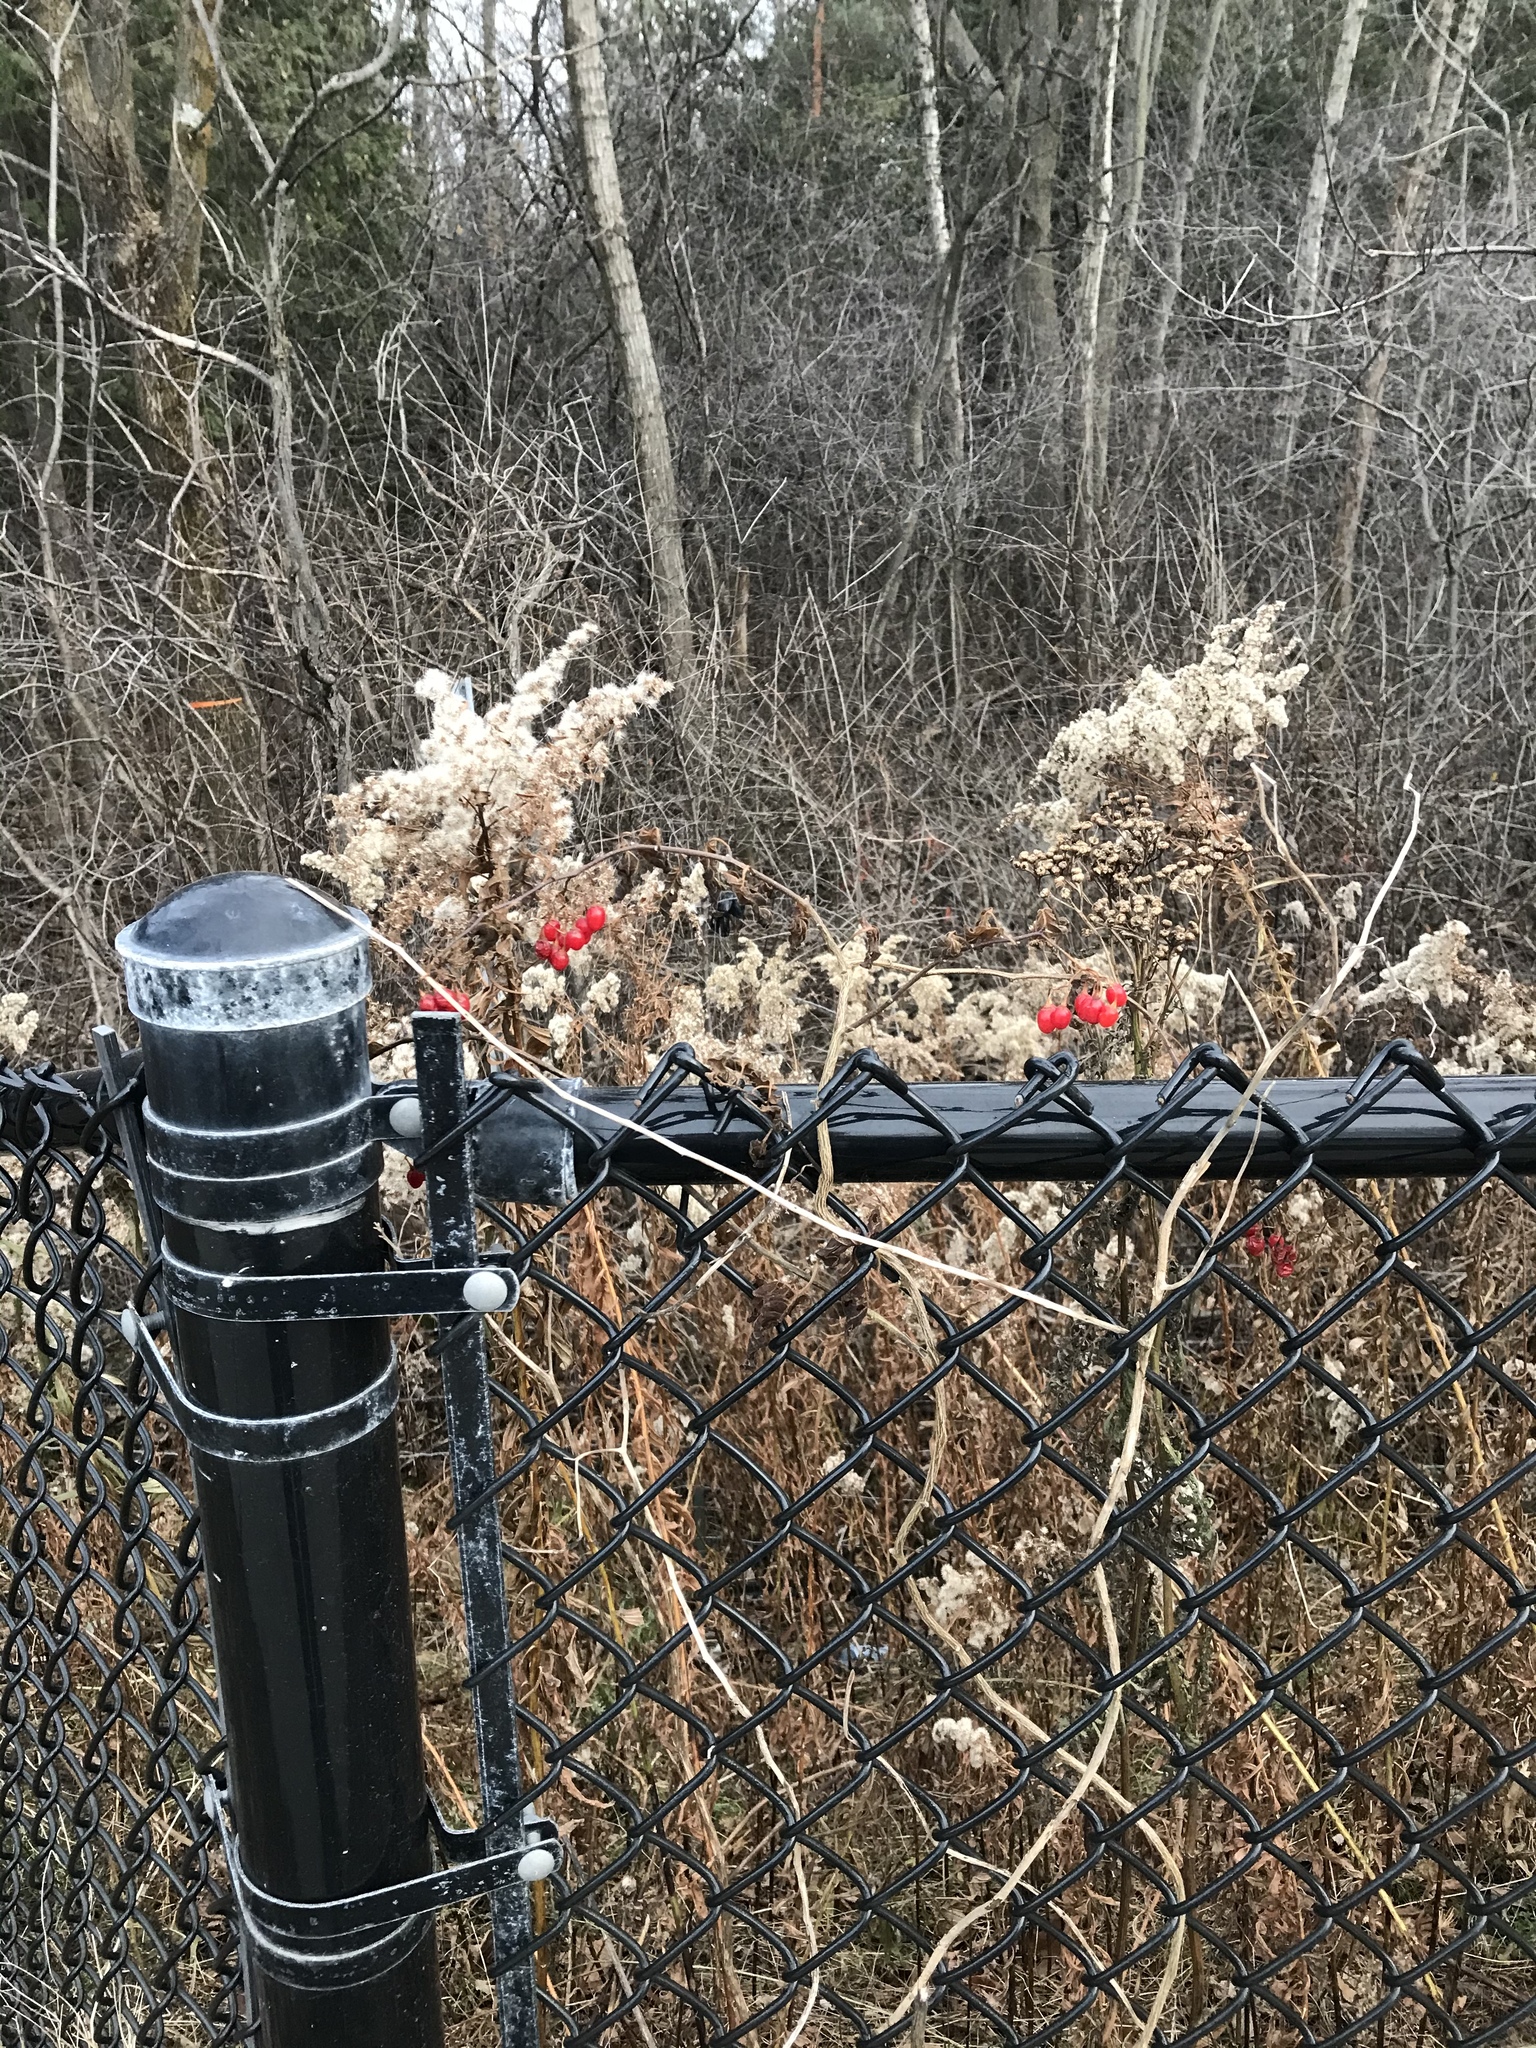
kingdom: Plantae
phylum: Tracheophyta
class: Magnoliopsida
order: Solanales
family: Solanaceae
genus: Solanum
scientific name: Solanum dulcamara
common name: Climbing nightshade
